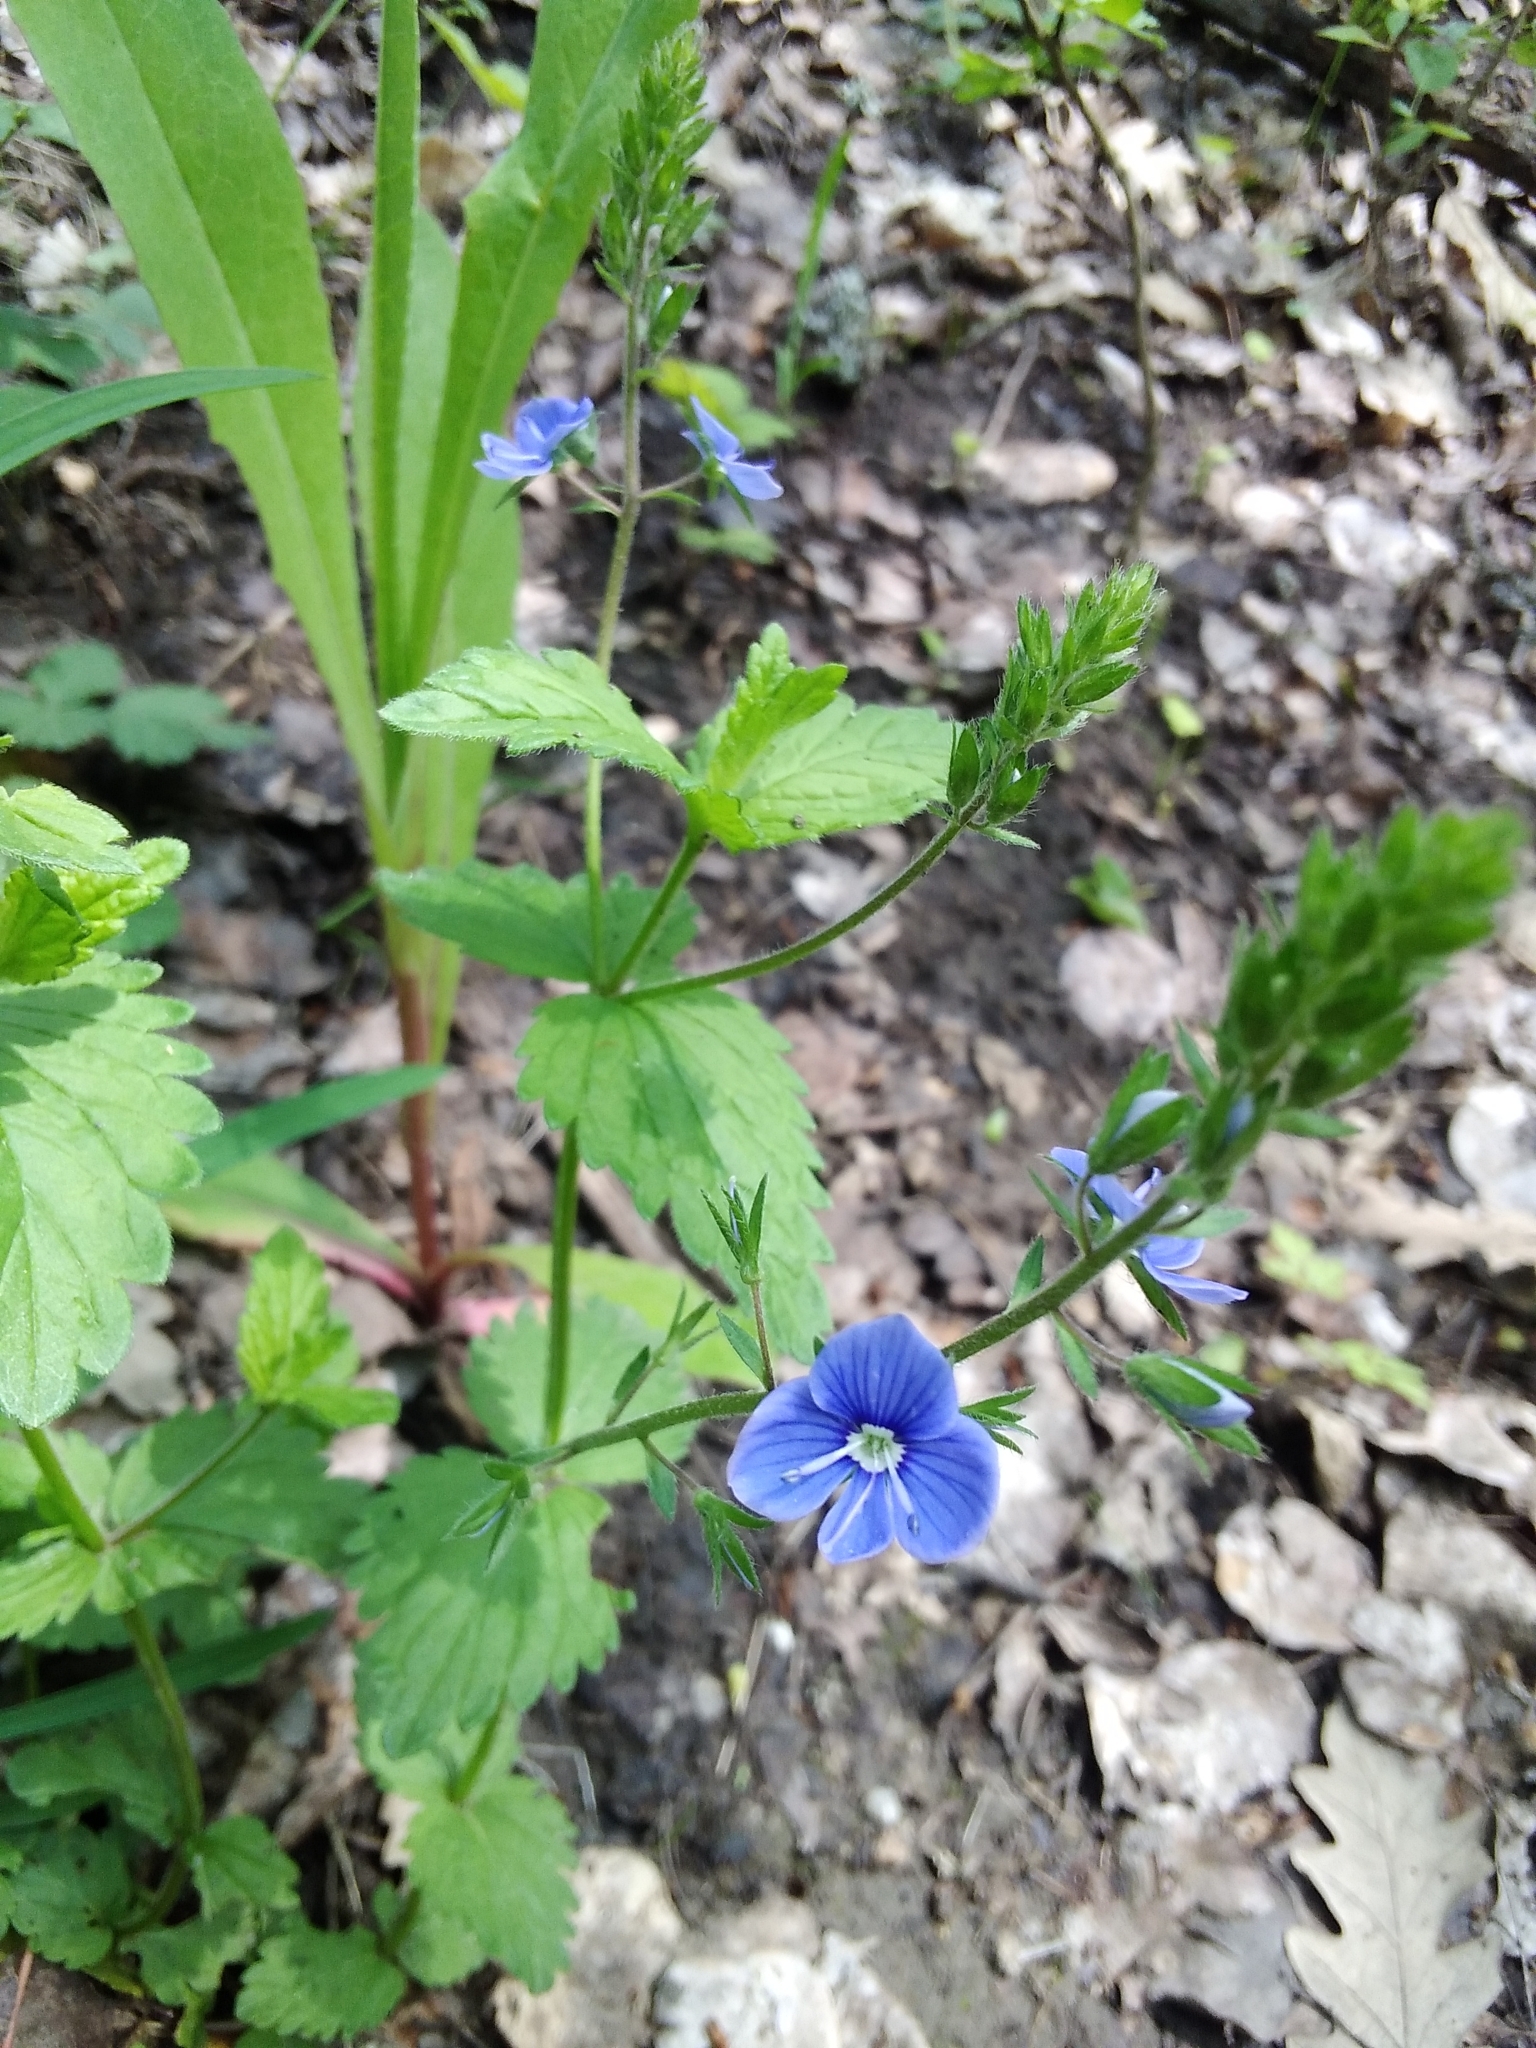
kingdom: Plantae
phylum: Tracheophyta
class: Magnoliopsida
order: Lamiales
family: Plantaginaceae
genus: Veronica
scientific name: Veronica chamaedrys
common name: Germander speedwell
